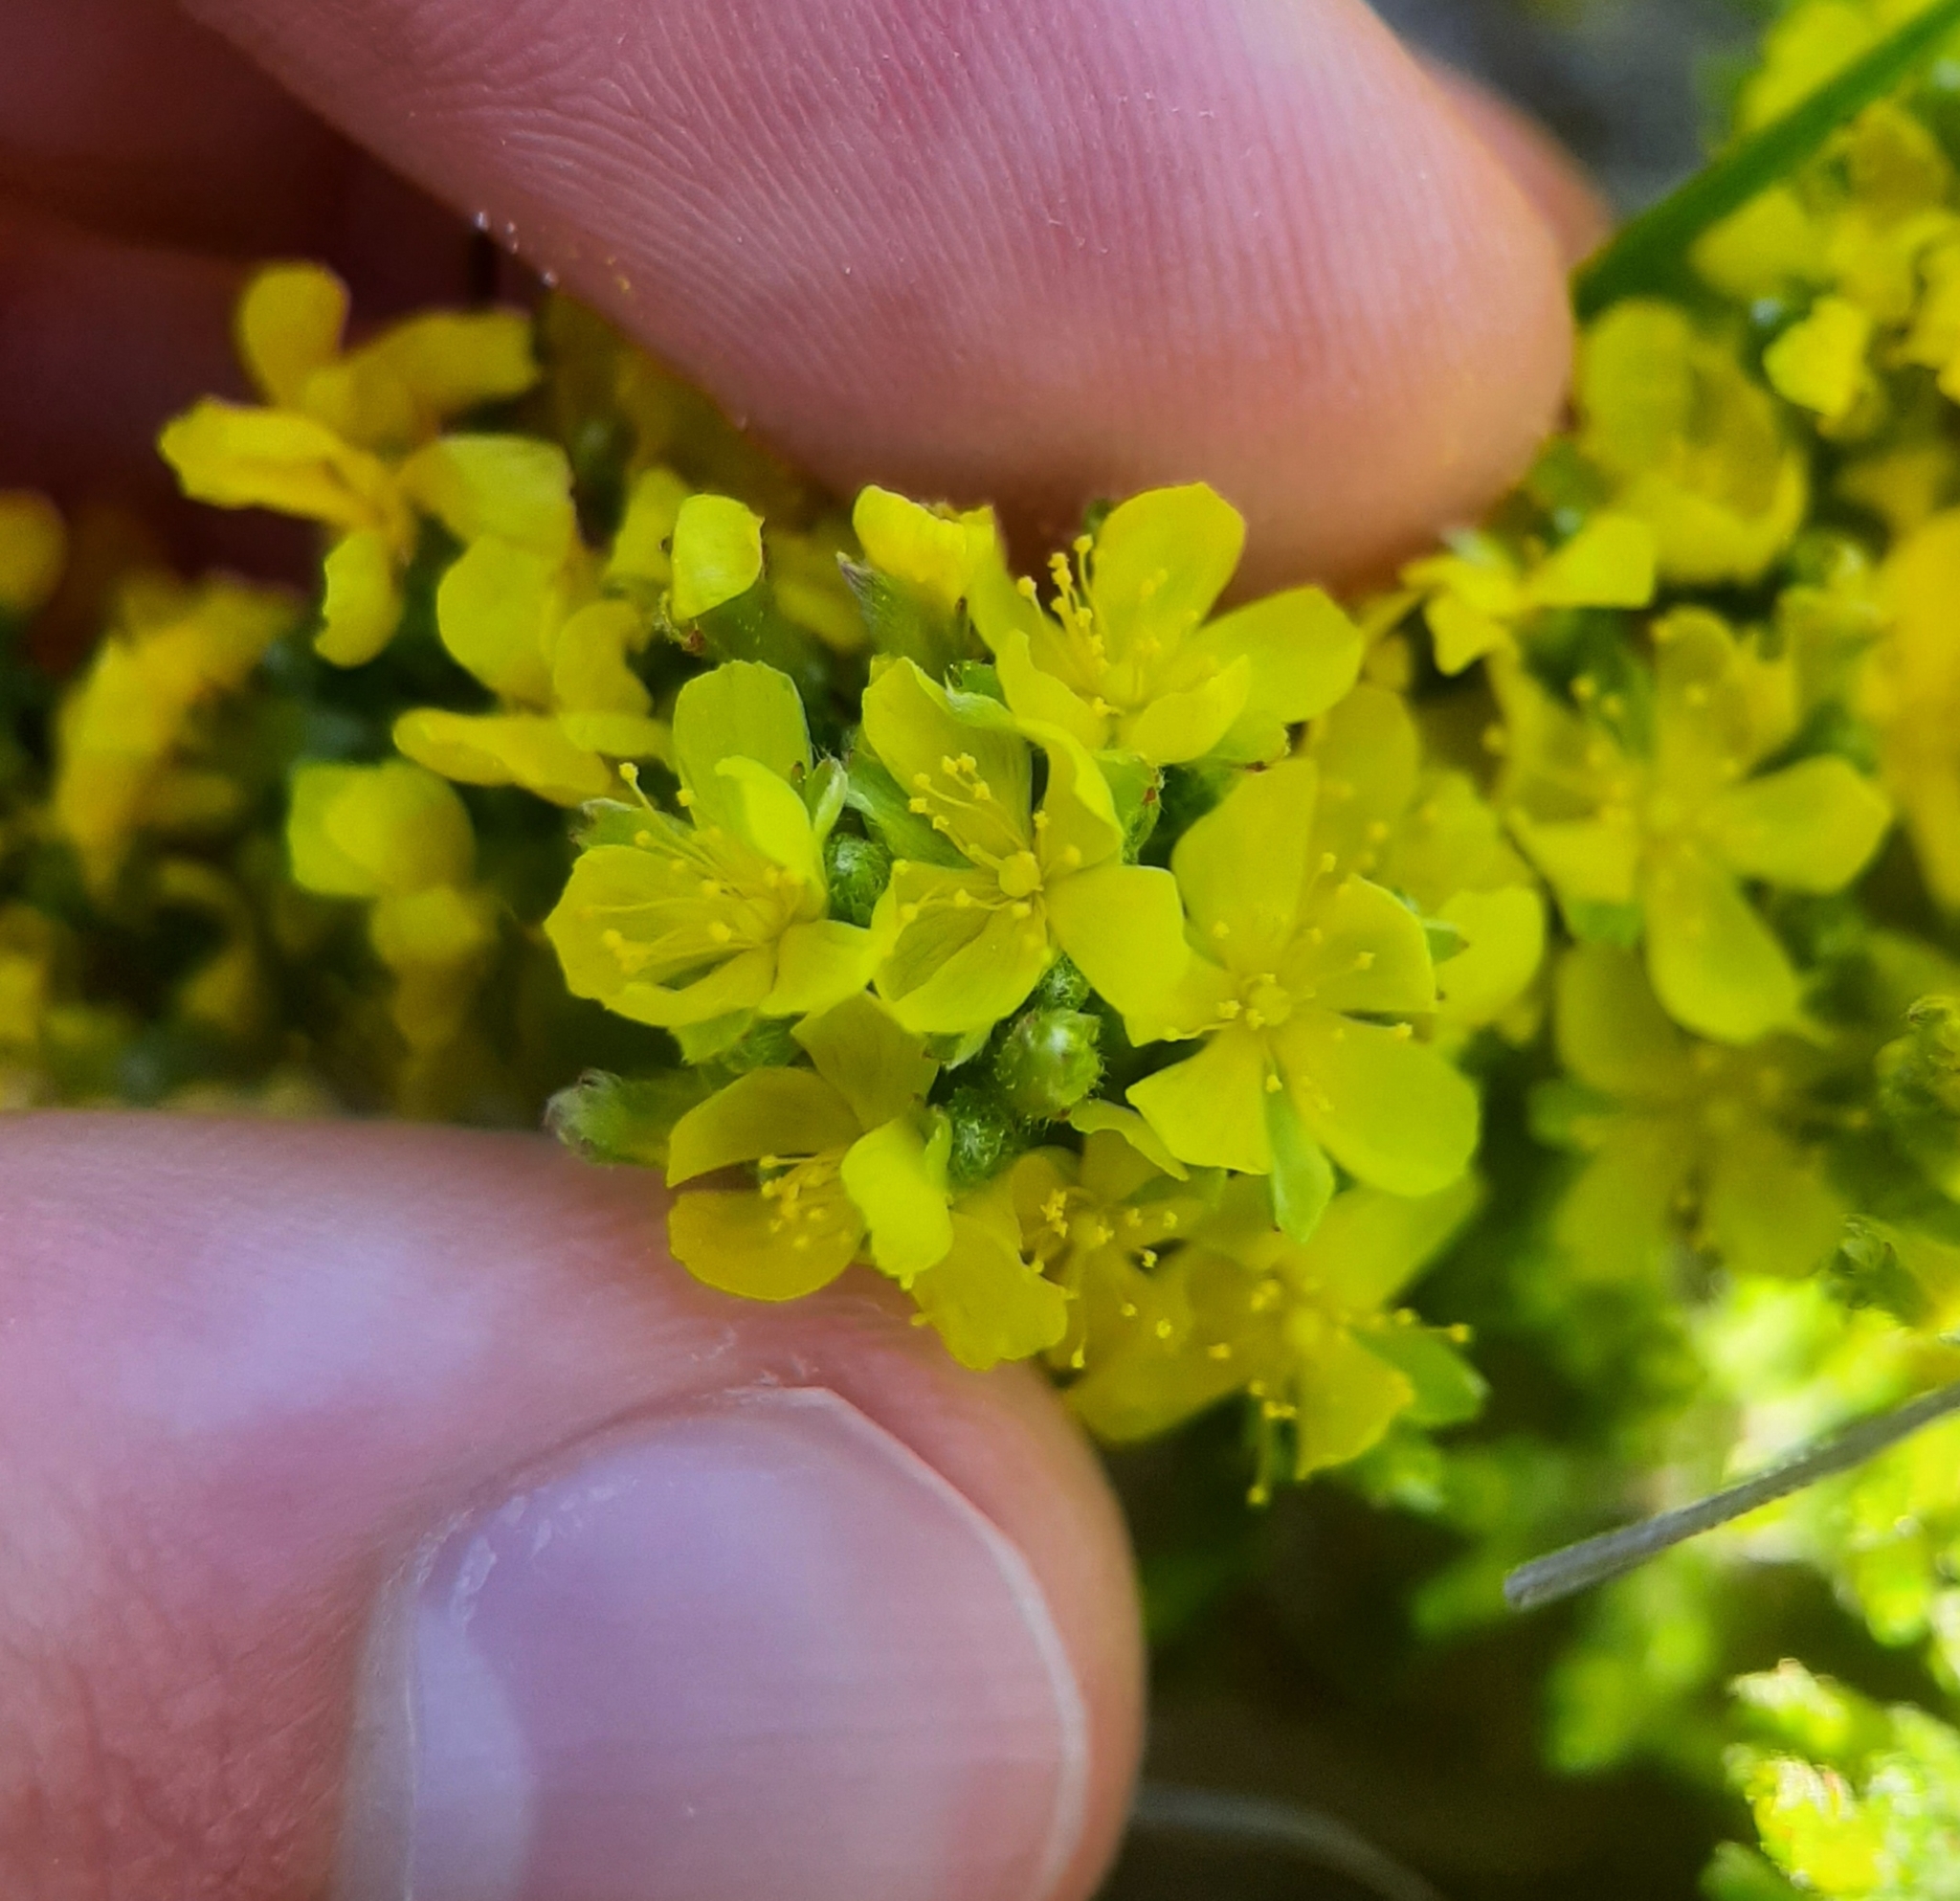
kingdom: Plantae
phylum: Tracheophyta
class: Magnoliopsida
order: Malvales
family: Cistaceae
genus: Hudsonia
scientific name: Hudsonia tomentosa
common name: Beach-heath
